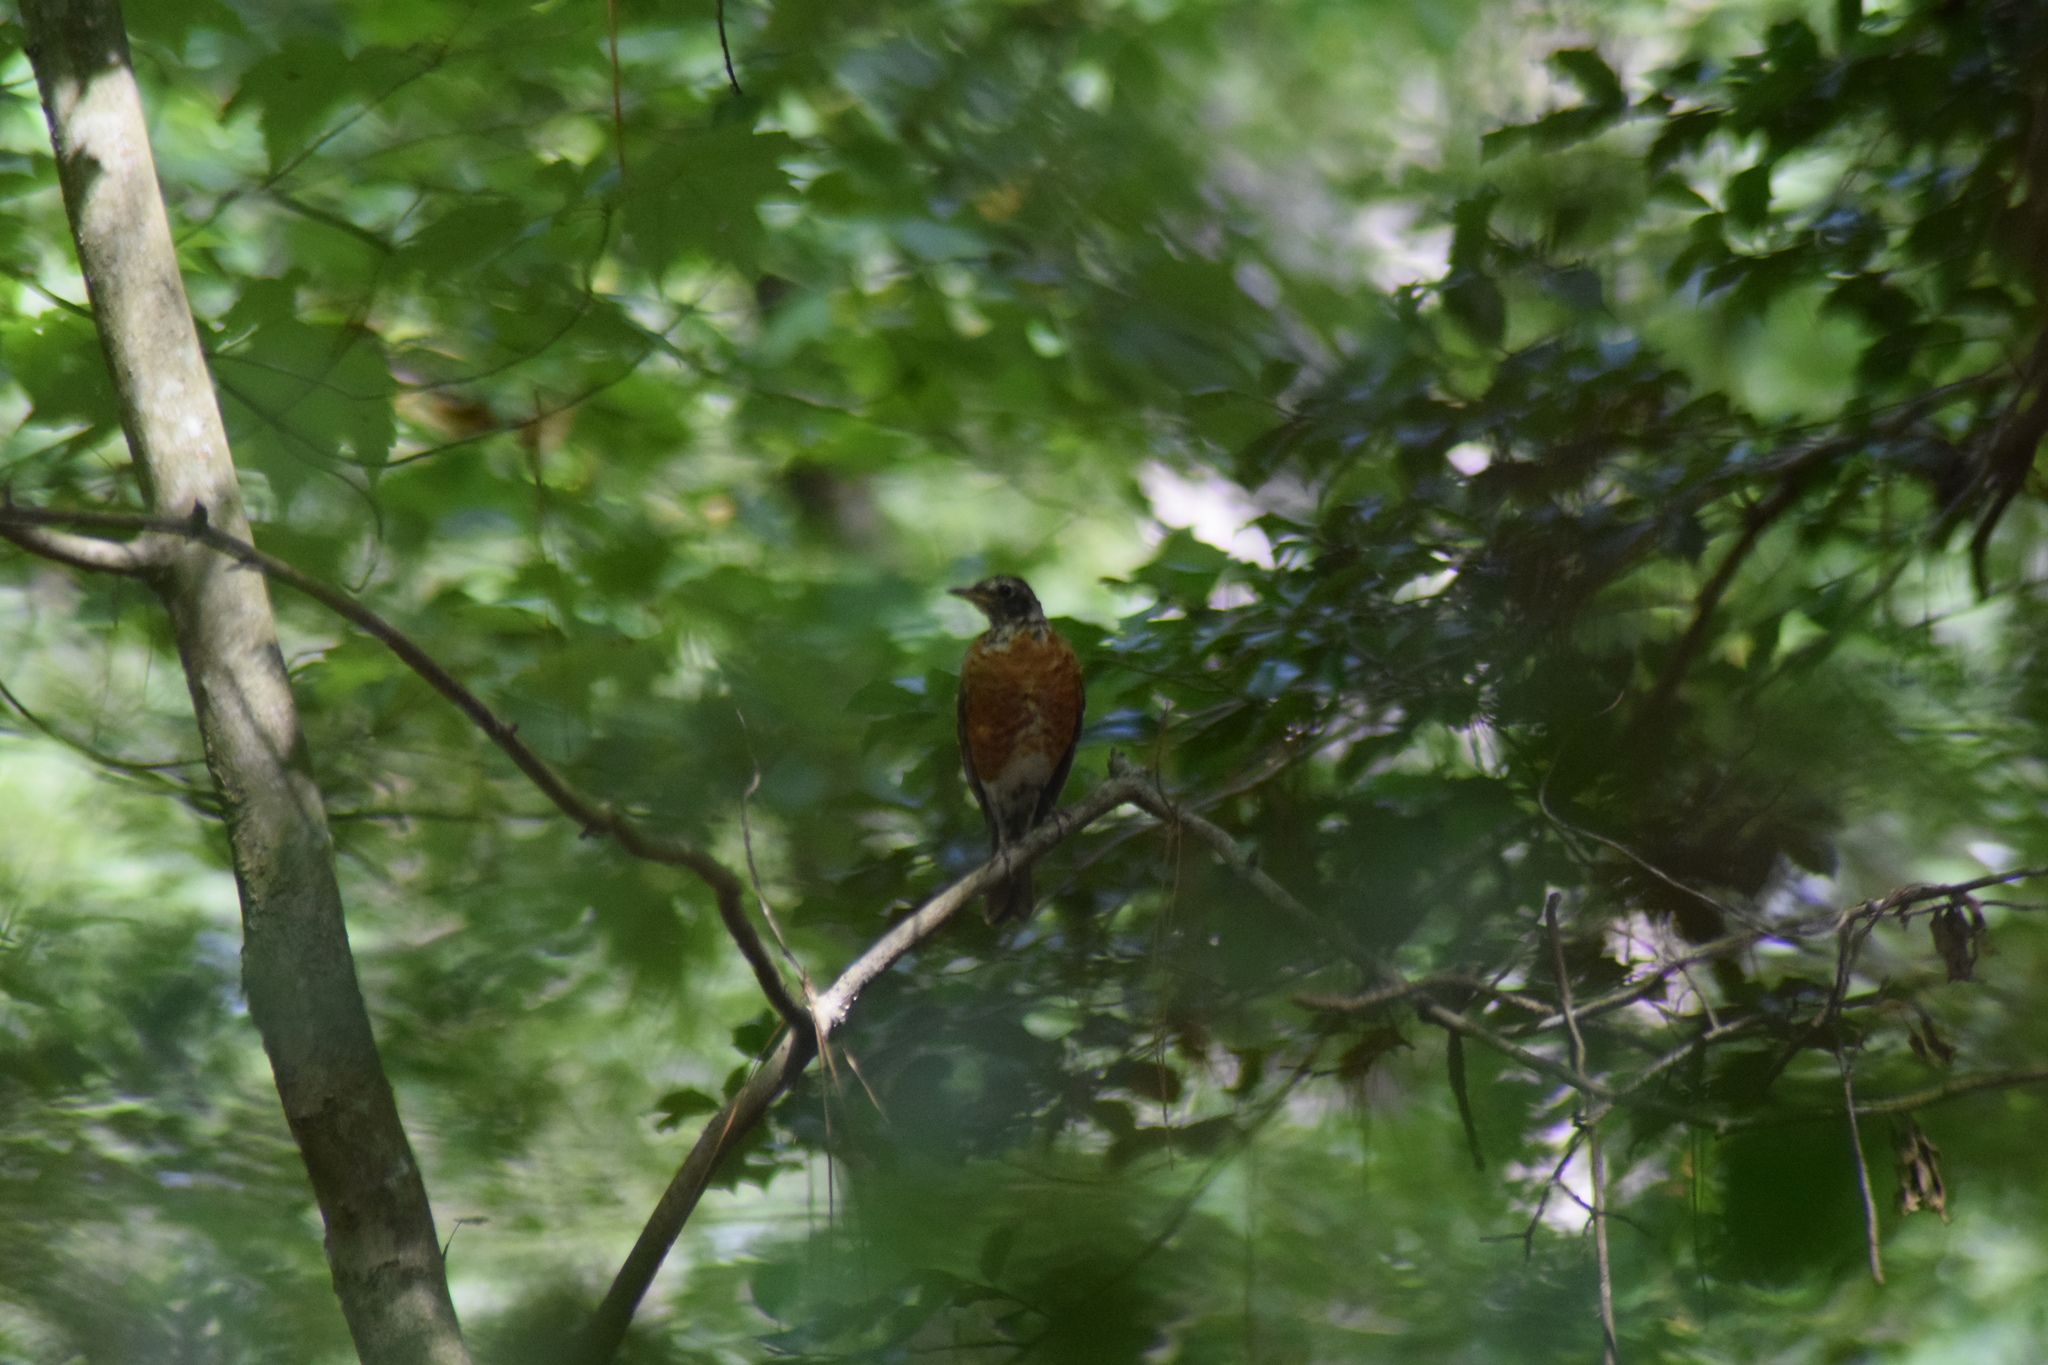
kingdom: Animalia
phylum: Chordata
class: Aves
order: Passeriformes
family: Turdidae
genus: Turdus
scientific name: Turdus migratorius
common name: American robin
